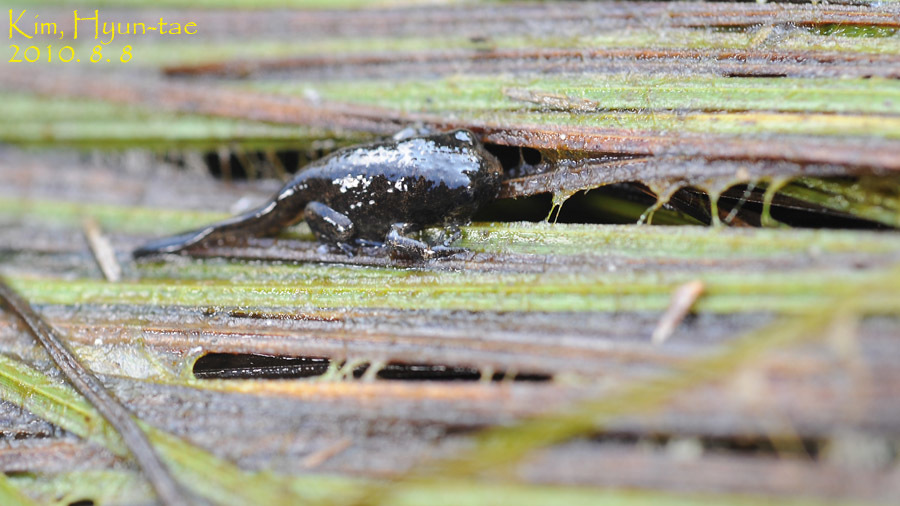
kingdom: Animalia
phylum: Chordata
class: Amphibia
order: Anura
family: Microhylidae
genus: Kaloula
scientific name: Kaloula borealis
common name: Boreal digging frog
